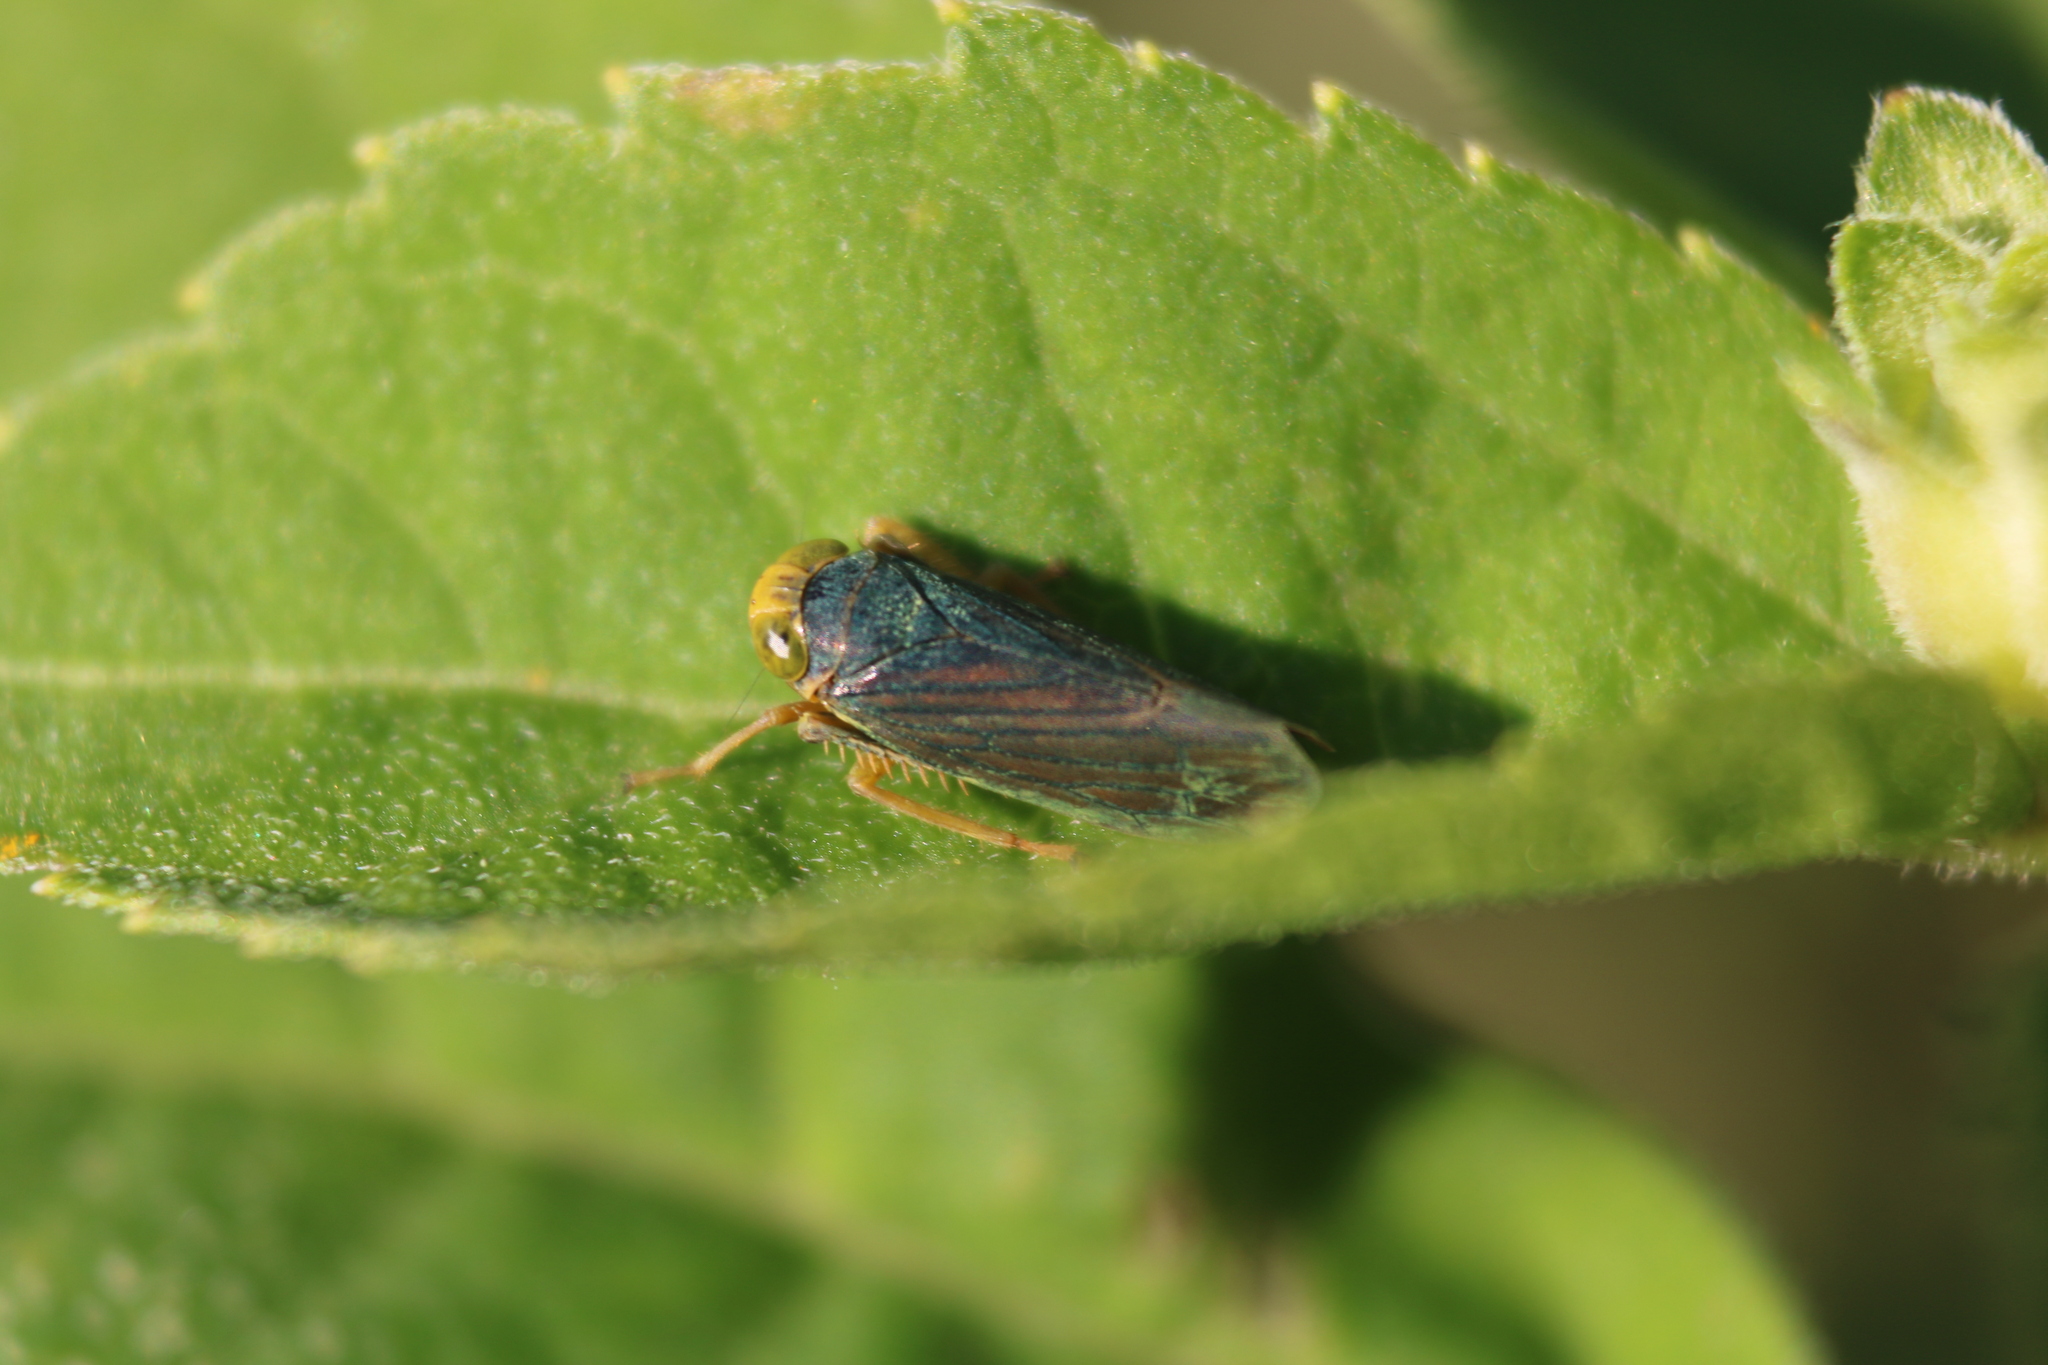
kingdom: Animalia
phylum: Arthropoda
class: Insecta
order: Hemiptera
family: Cicadellidae
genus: Jikradia
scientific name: Jikradia olitoria
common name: Coppery leafhopper
